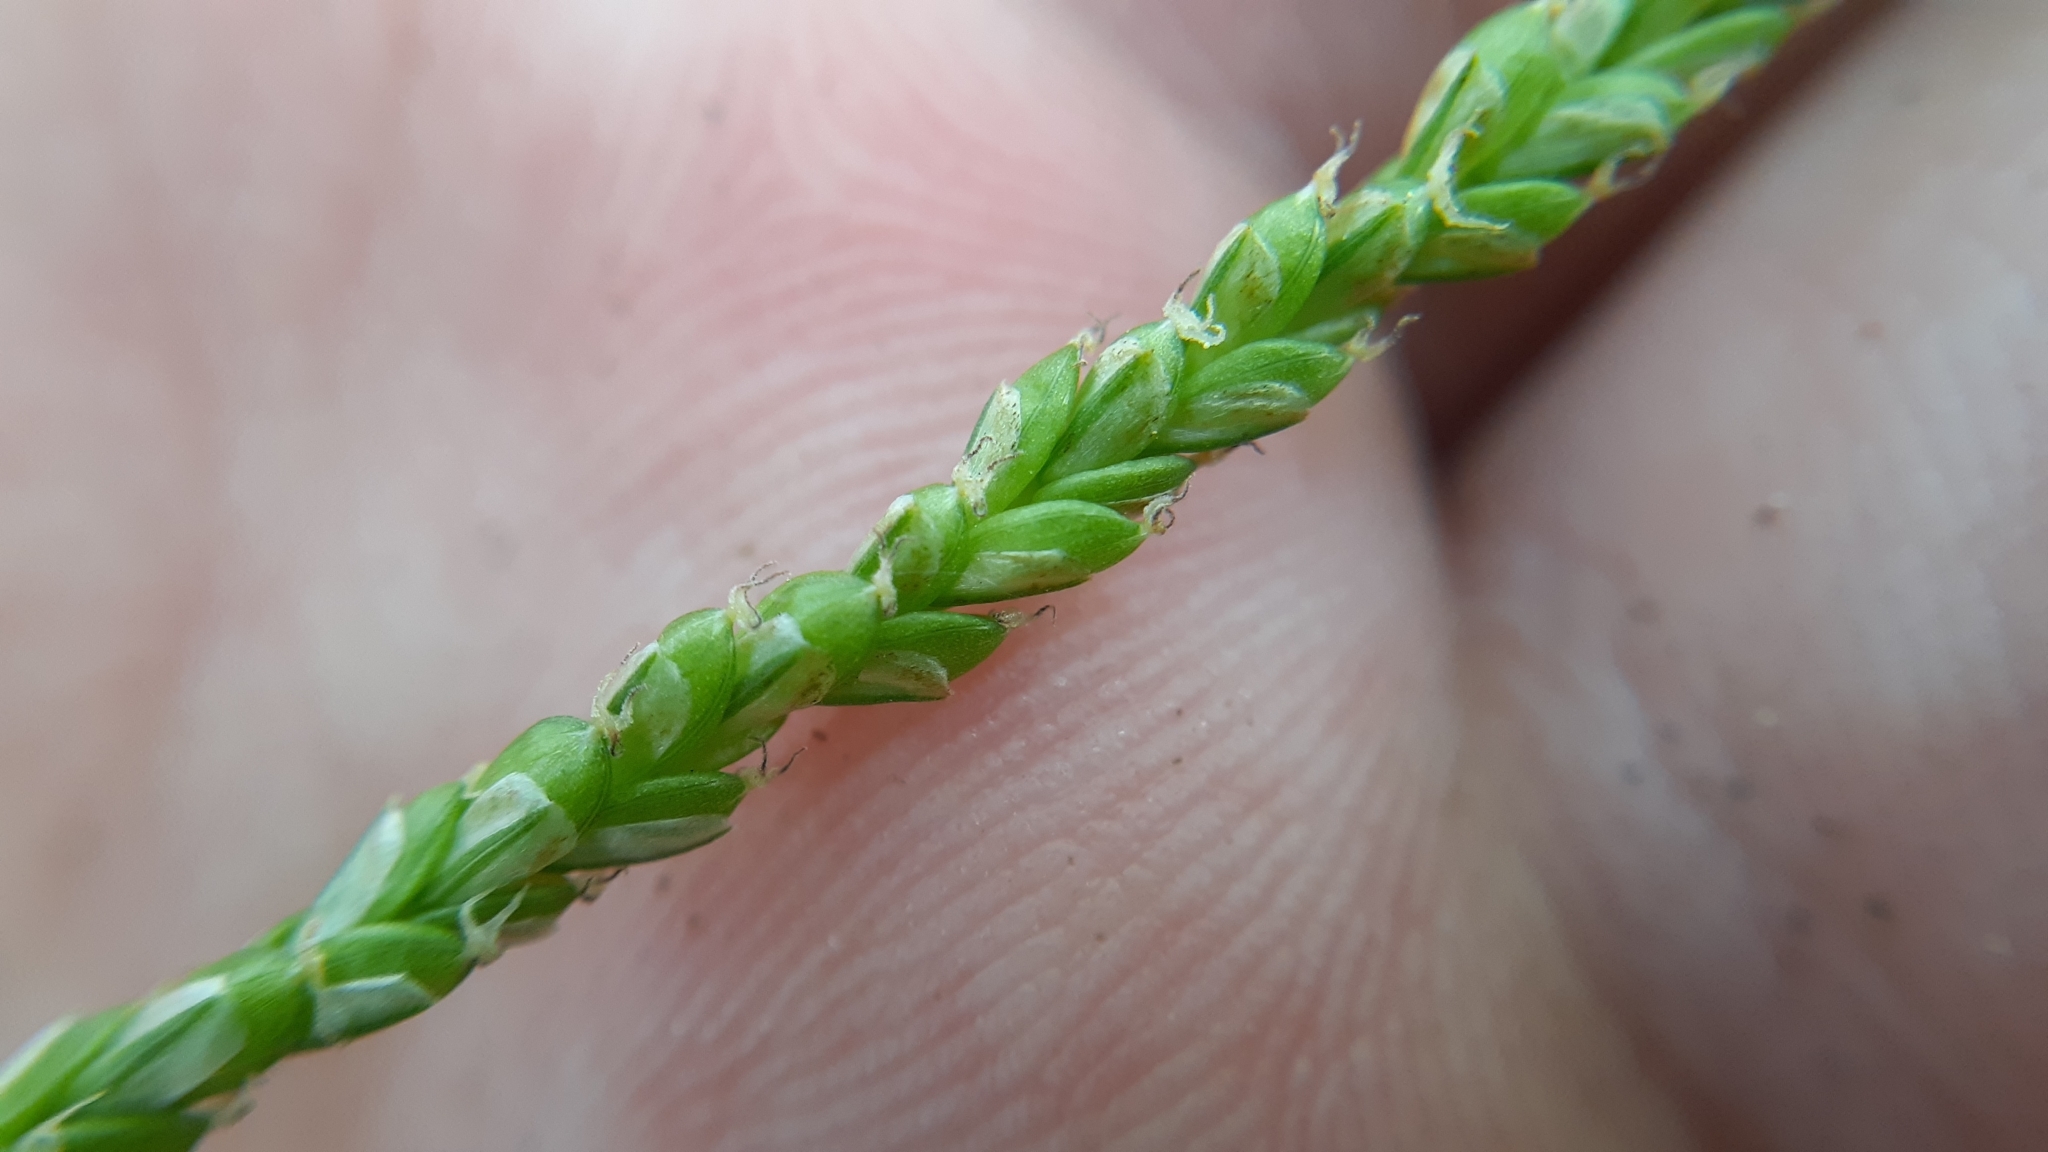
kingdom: Plantae
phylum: Tracheophyta
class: Liliopsida
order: Poales
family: Cyperaceae
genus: Carex
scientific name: Carex gracillima
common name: Graceful sedge
